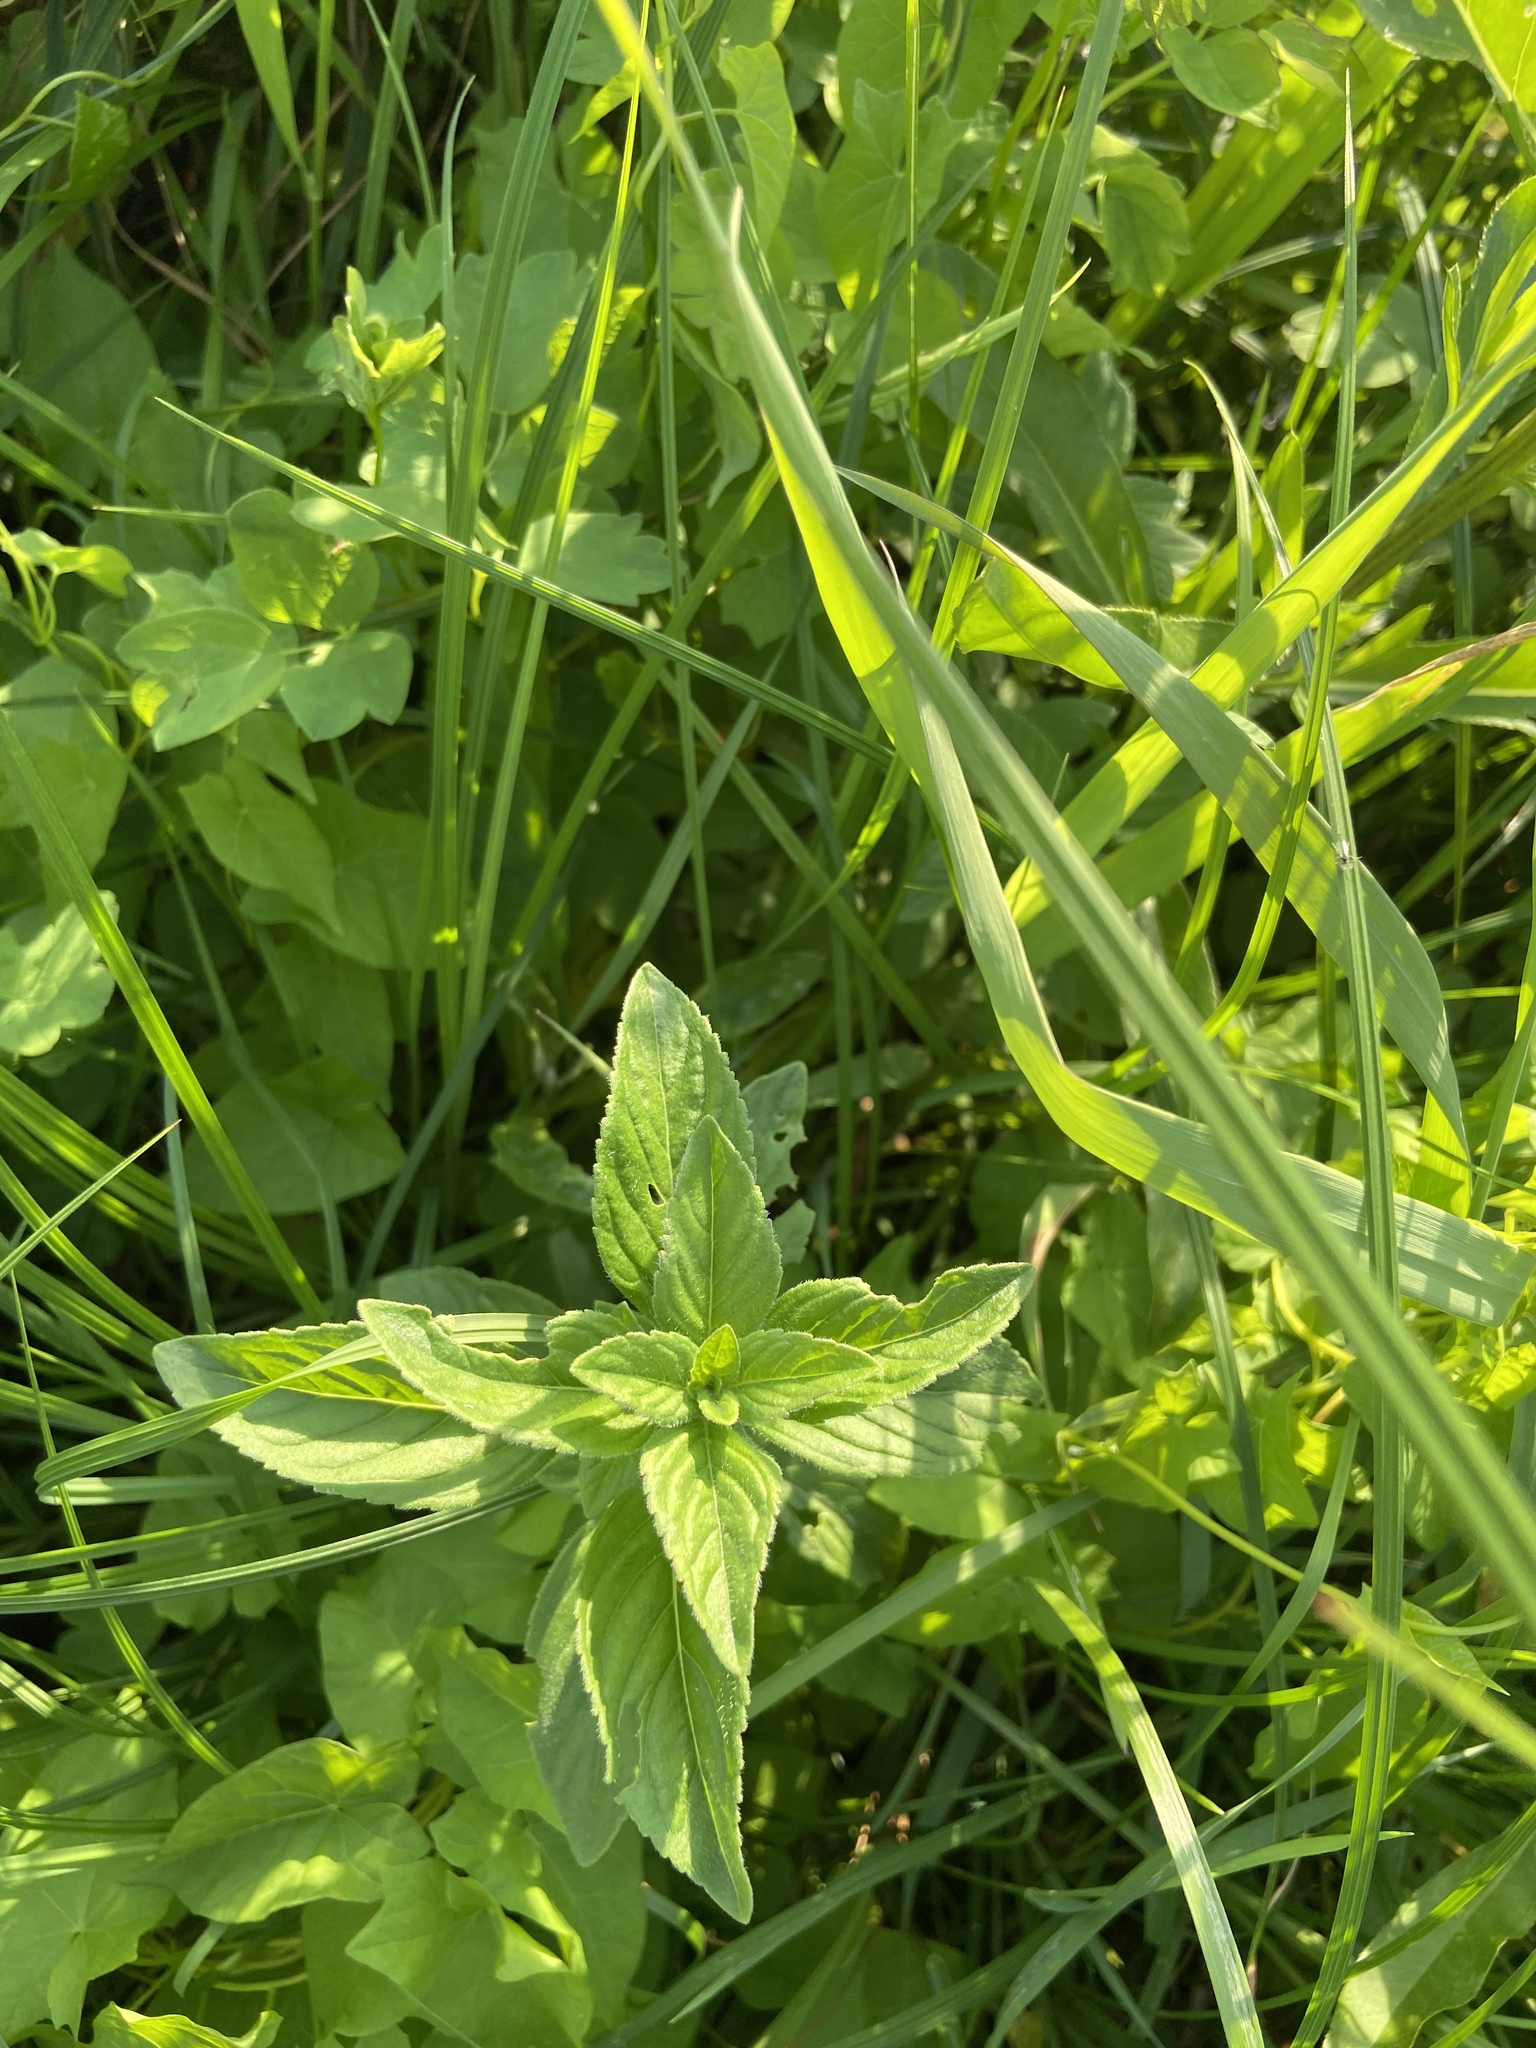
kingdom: Plantae
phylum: Tracheophyta
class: Magnoliopsida
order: Lamiales
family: Lamiaceae
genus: Mentha
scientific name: Mentha arvensis
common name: Corn mint
